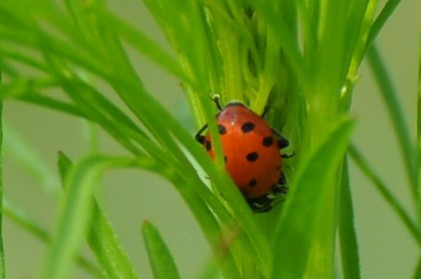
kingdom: Animalia
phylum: Arthropoda
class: Insecta
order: Coleoptera
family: Coccinellidae
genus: Hippodamia
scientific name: Hippodamia convergens
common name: Convergent lady beetle
